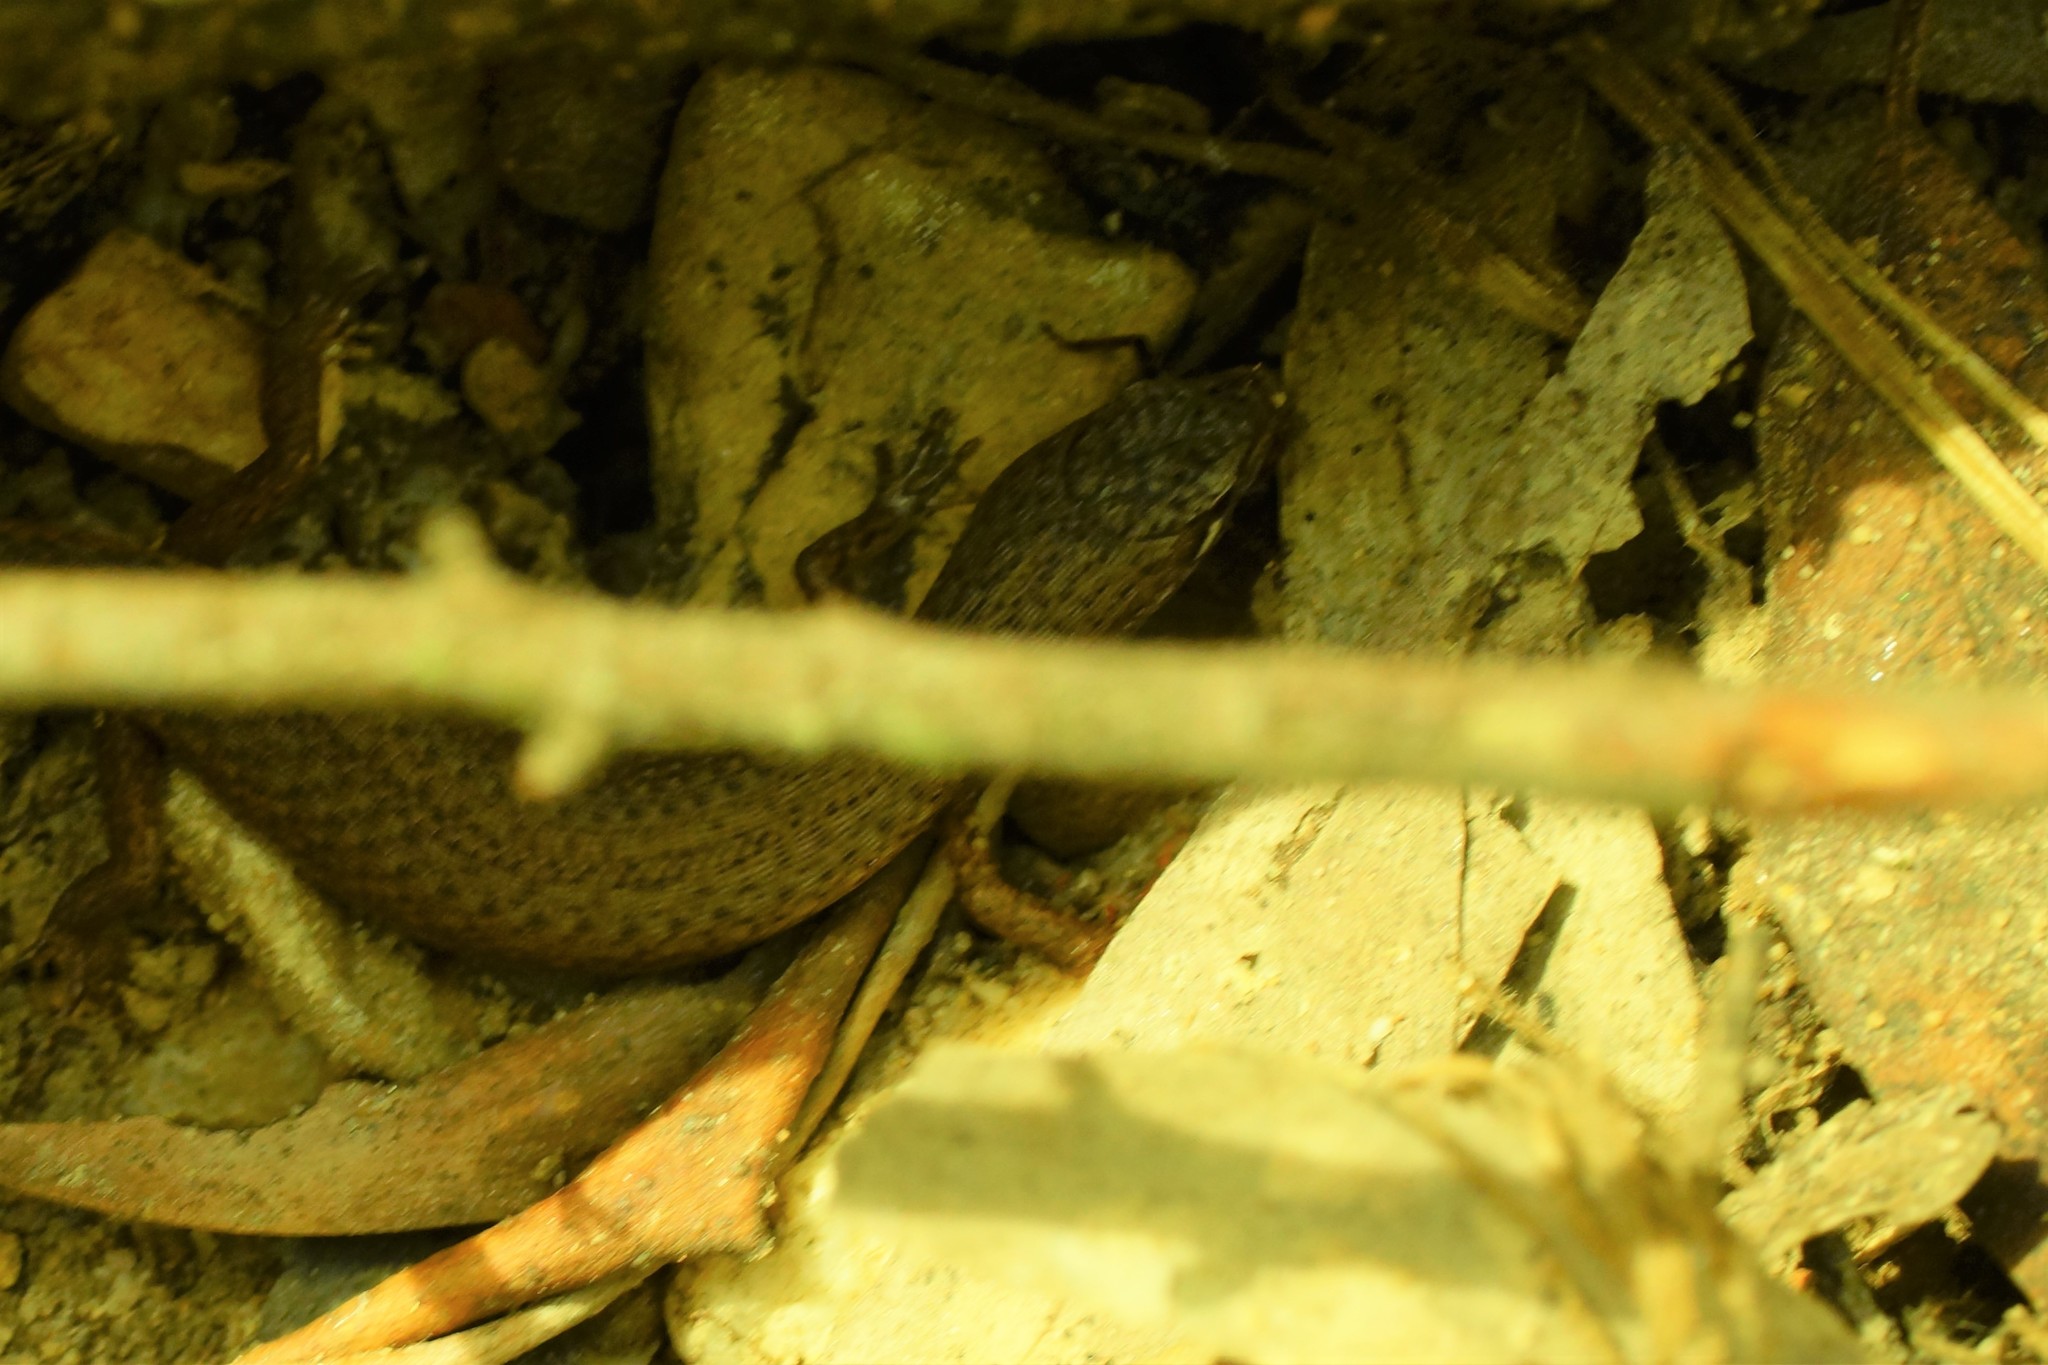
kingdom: Animalia
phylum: Chordata
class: Squamata
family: Scincidae
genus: Saproscincus
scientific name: Saproscincus mustelinus
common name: Southern weasel skink
